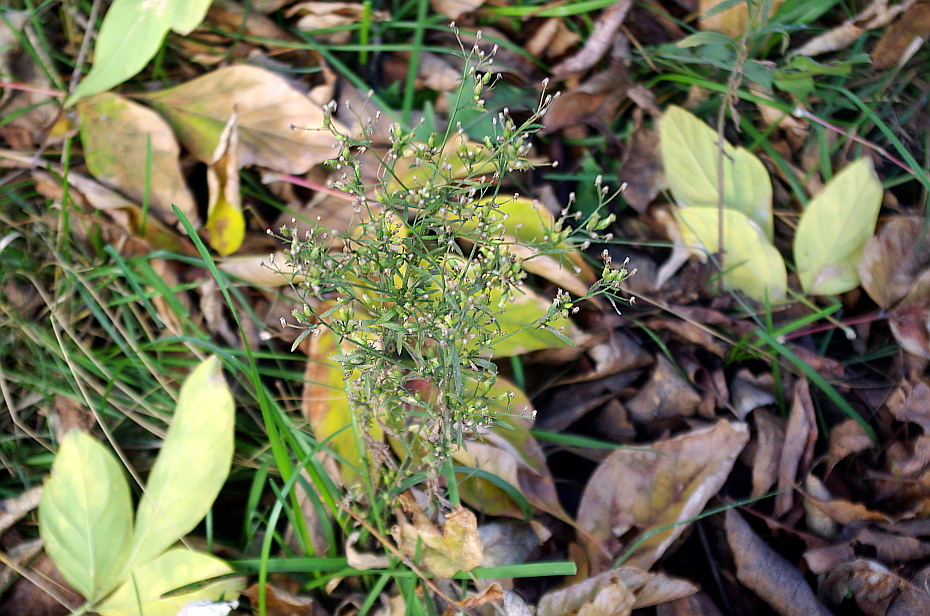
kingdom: Plantae
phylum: Tracheophyta
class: Magnoliopsida
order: Asterales
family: Asteraceae
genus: Erigeron
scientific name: Erigeron canadensis
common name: Canadian fleabane
